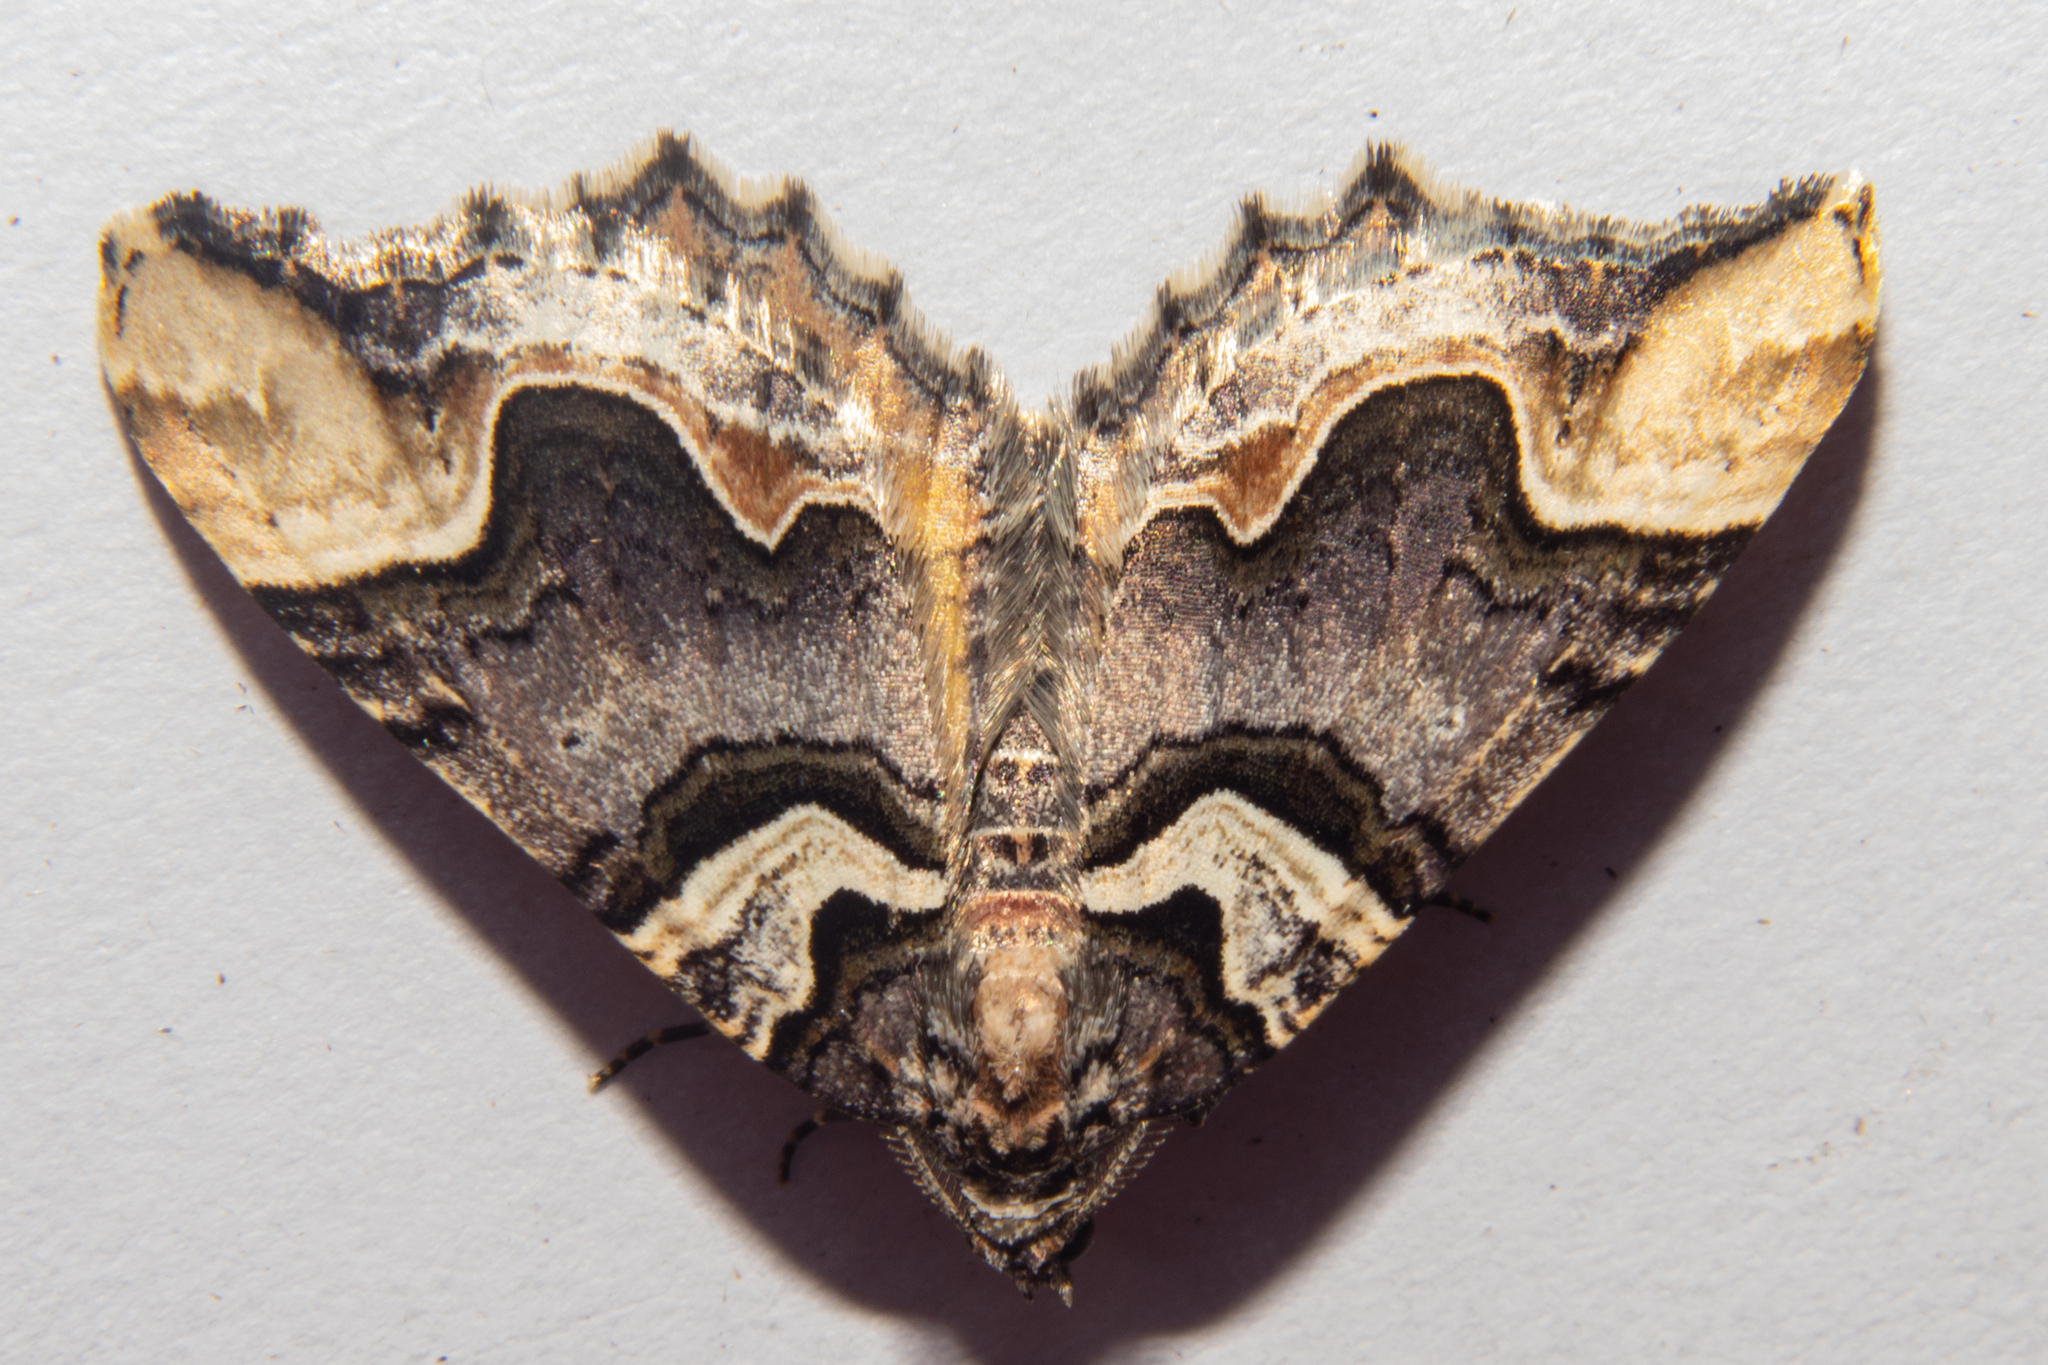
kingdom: Animalia
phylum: Arthropoda
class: Insecta
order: Lepidoptera
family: Geometridae
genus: Asaphodes
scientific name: Asaphodes chlamydota
